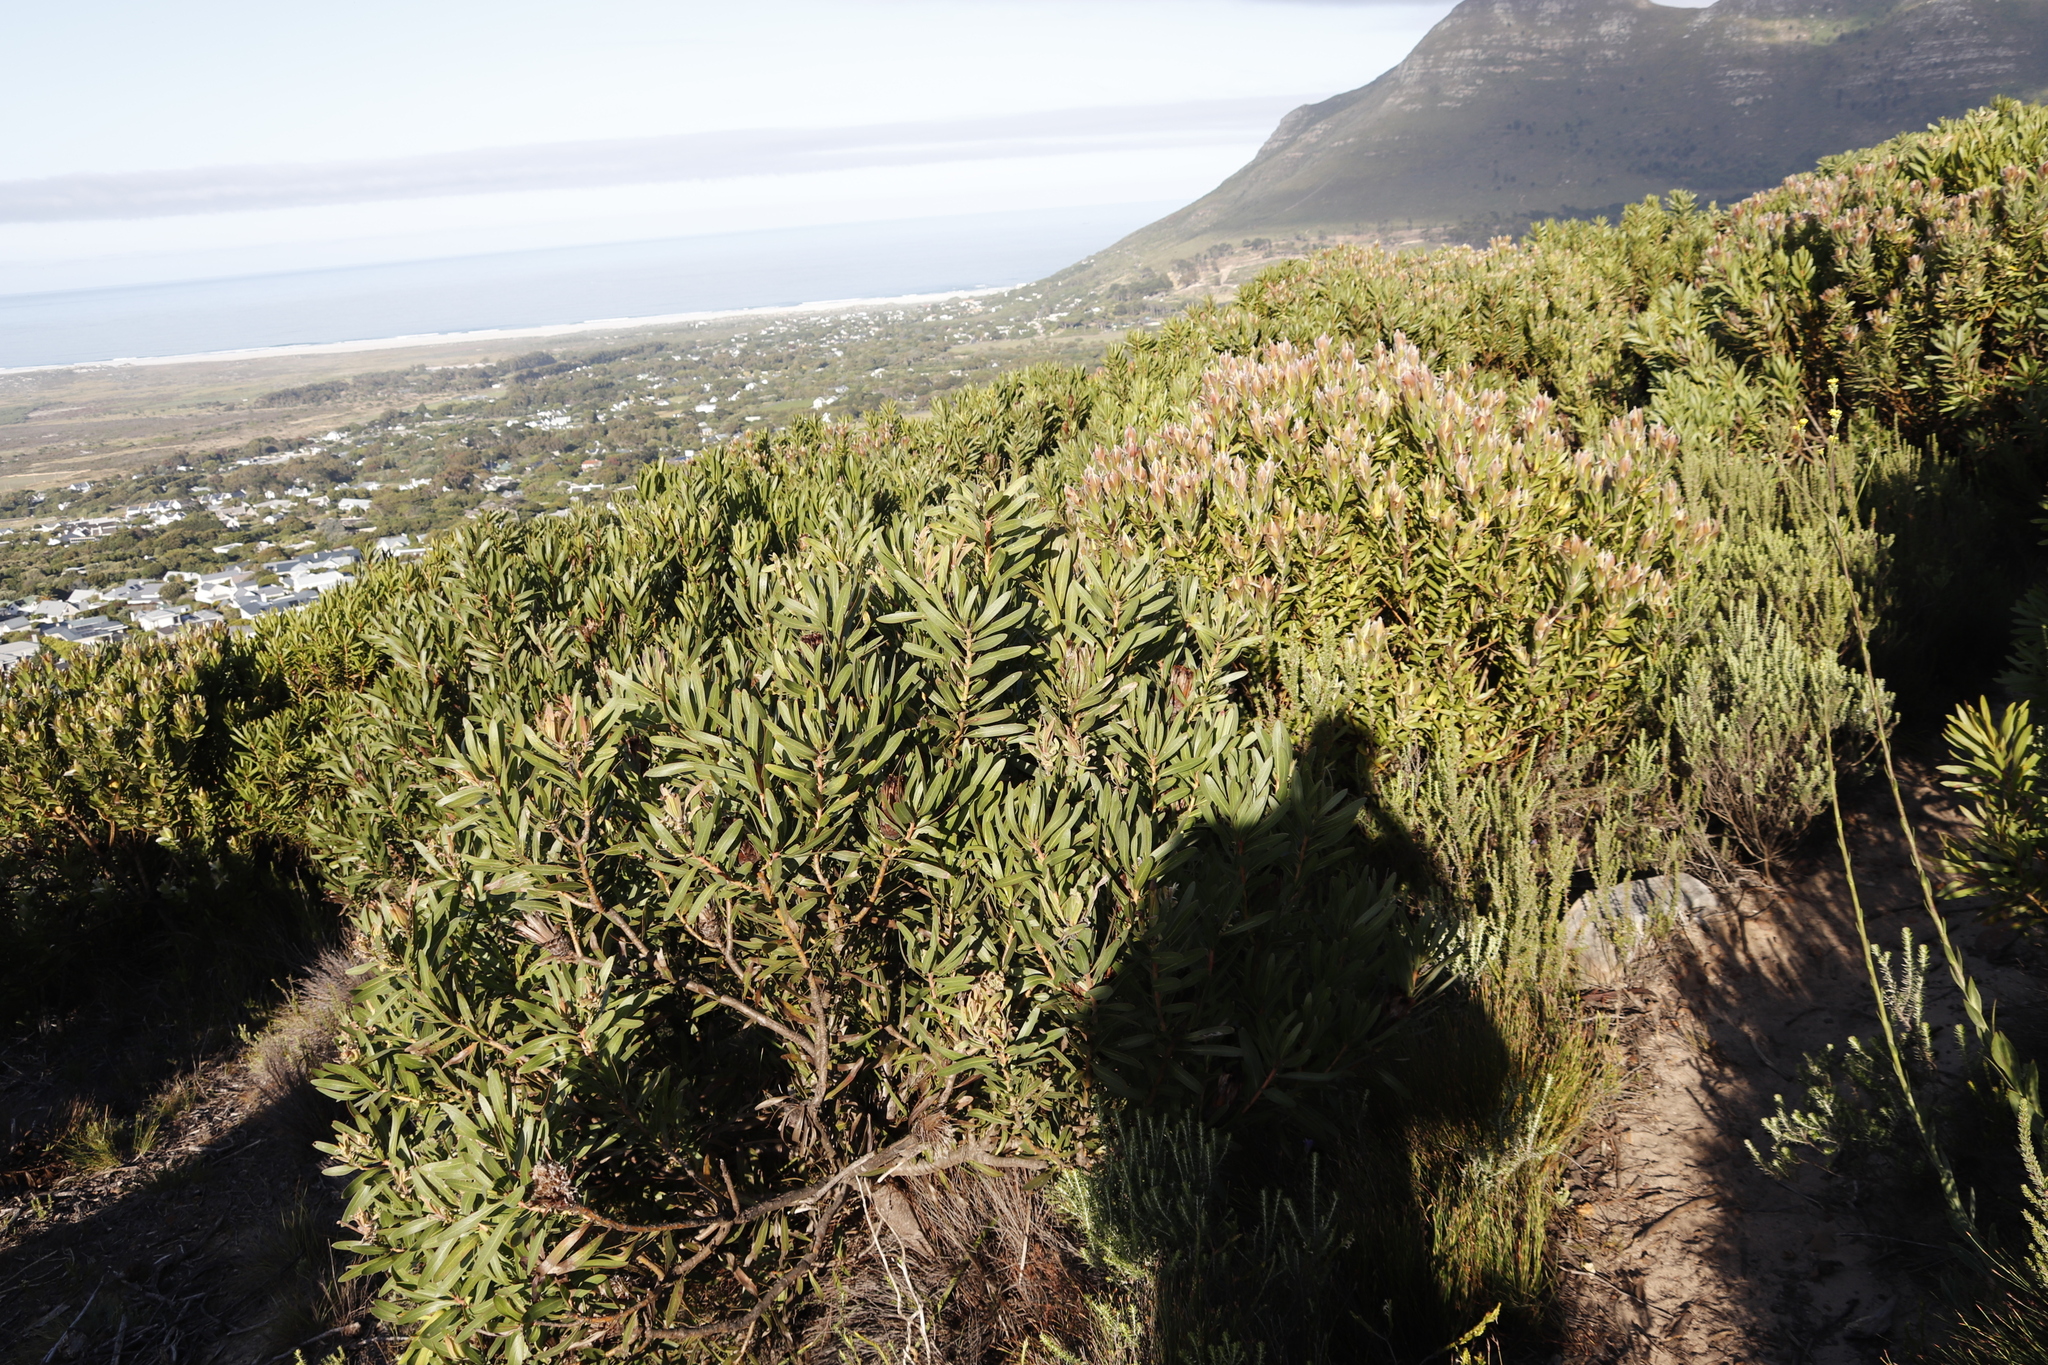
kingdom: Plantae
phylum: Tracheophyta
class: Magnoliopsida
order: Proteales
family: Proteaceae
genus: Leucadendron
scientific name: Leucadendron xanthoconus
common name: Sickle-leaf conebush
